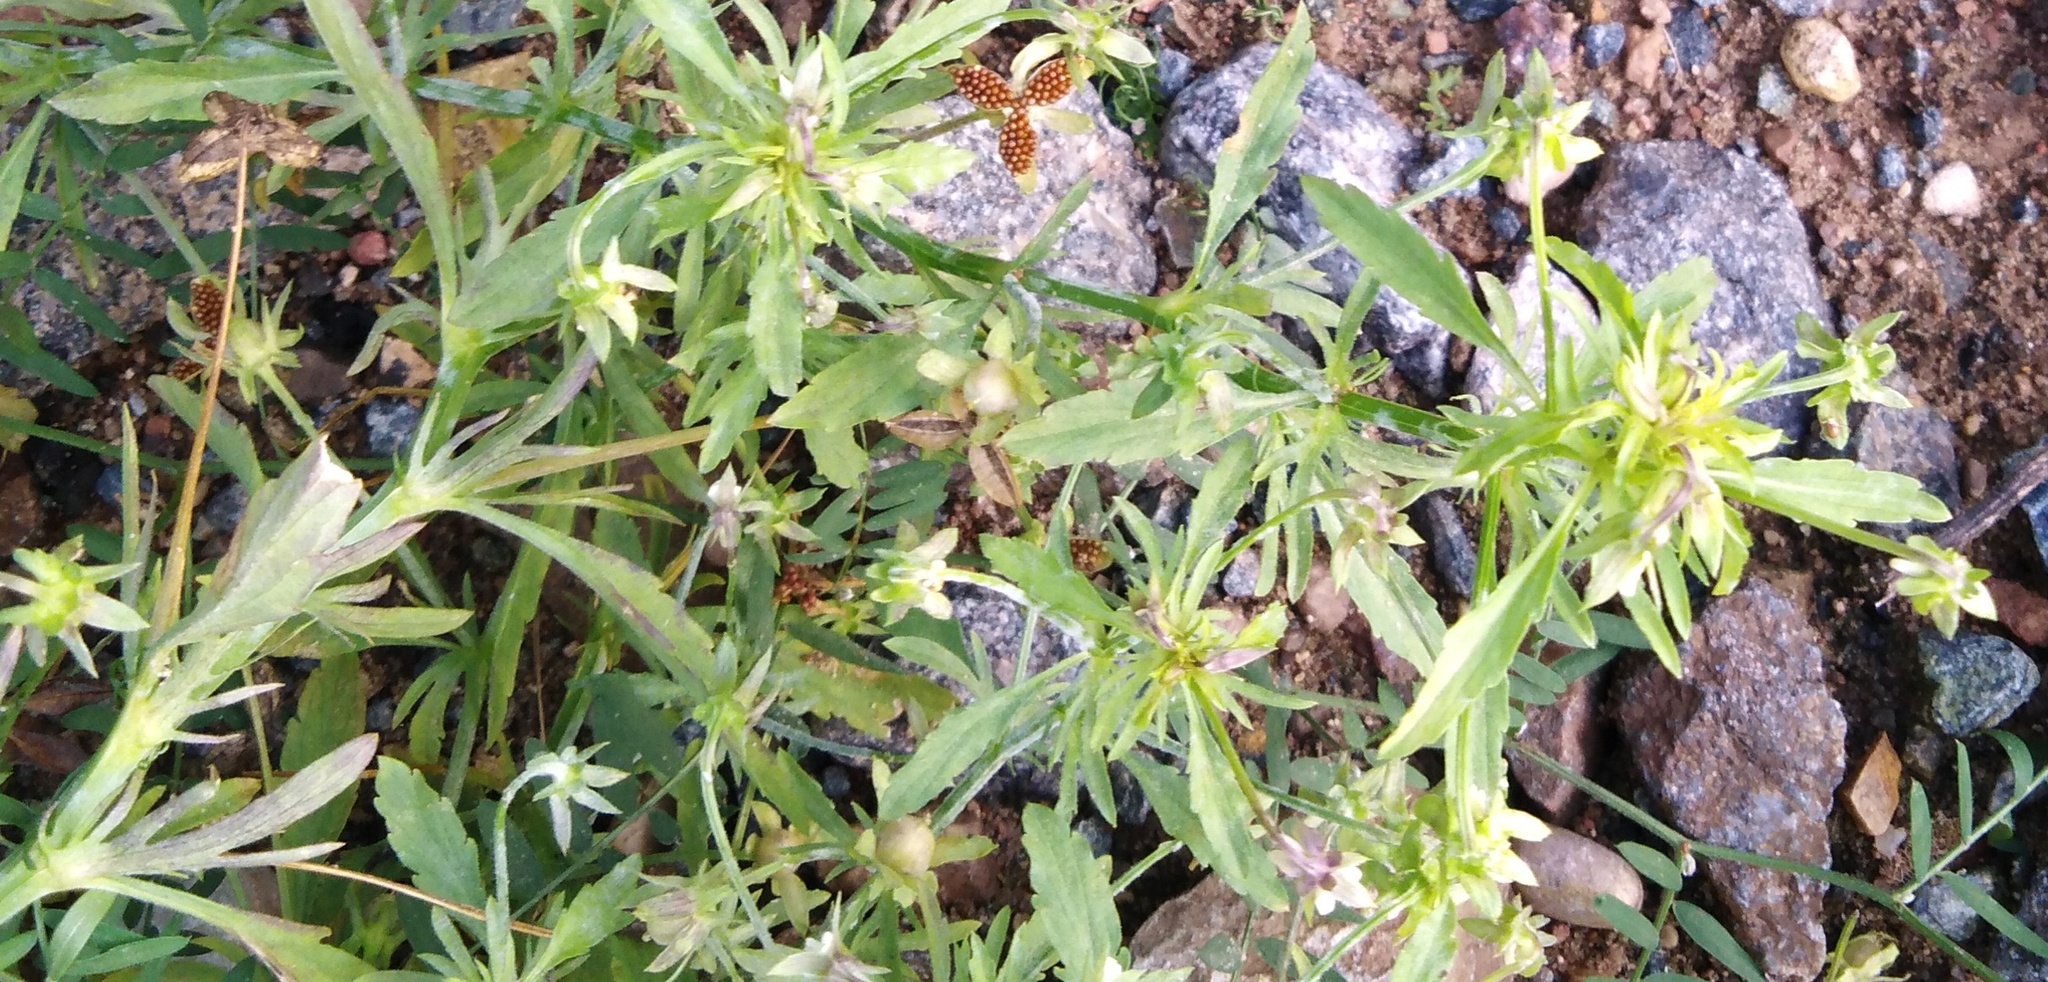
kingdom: Plantae
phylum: Tracheophyta
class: Magnoliopsida
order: Malpighiales
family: Violaceae
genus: Viola
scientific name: Viola arvensis
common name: Field pansy
